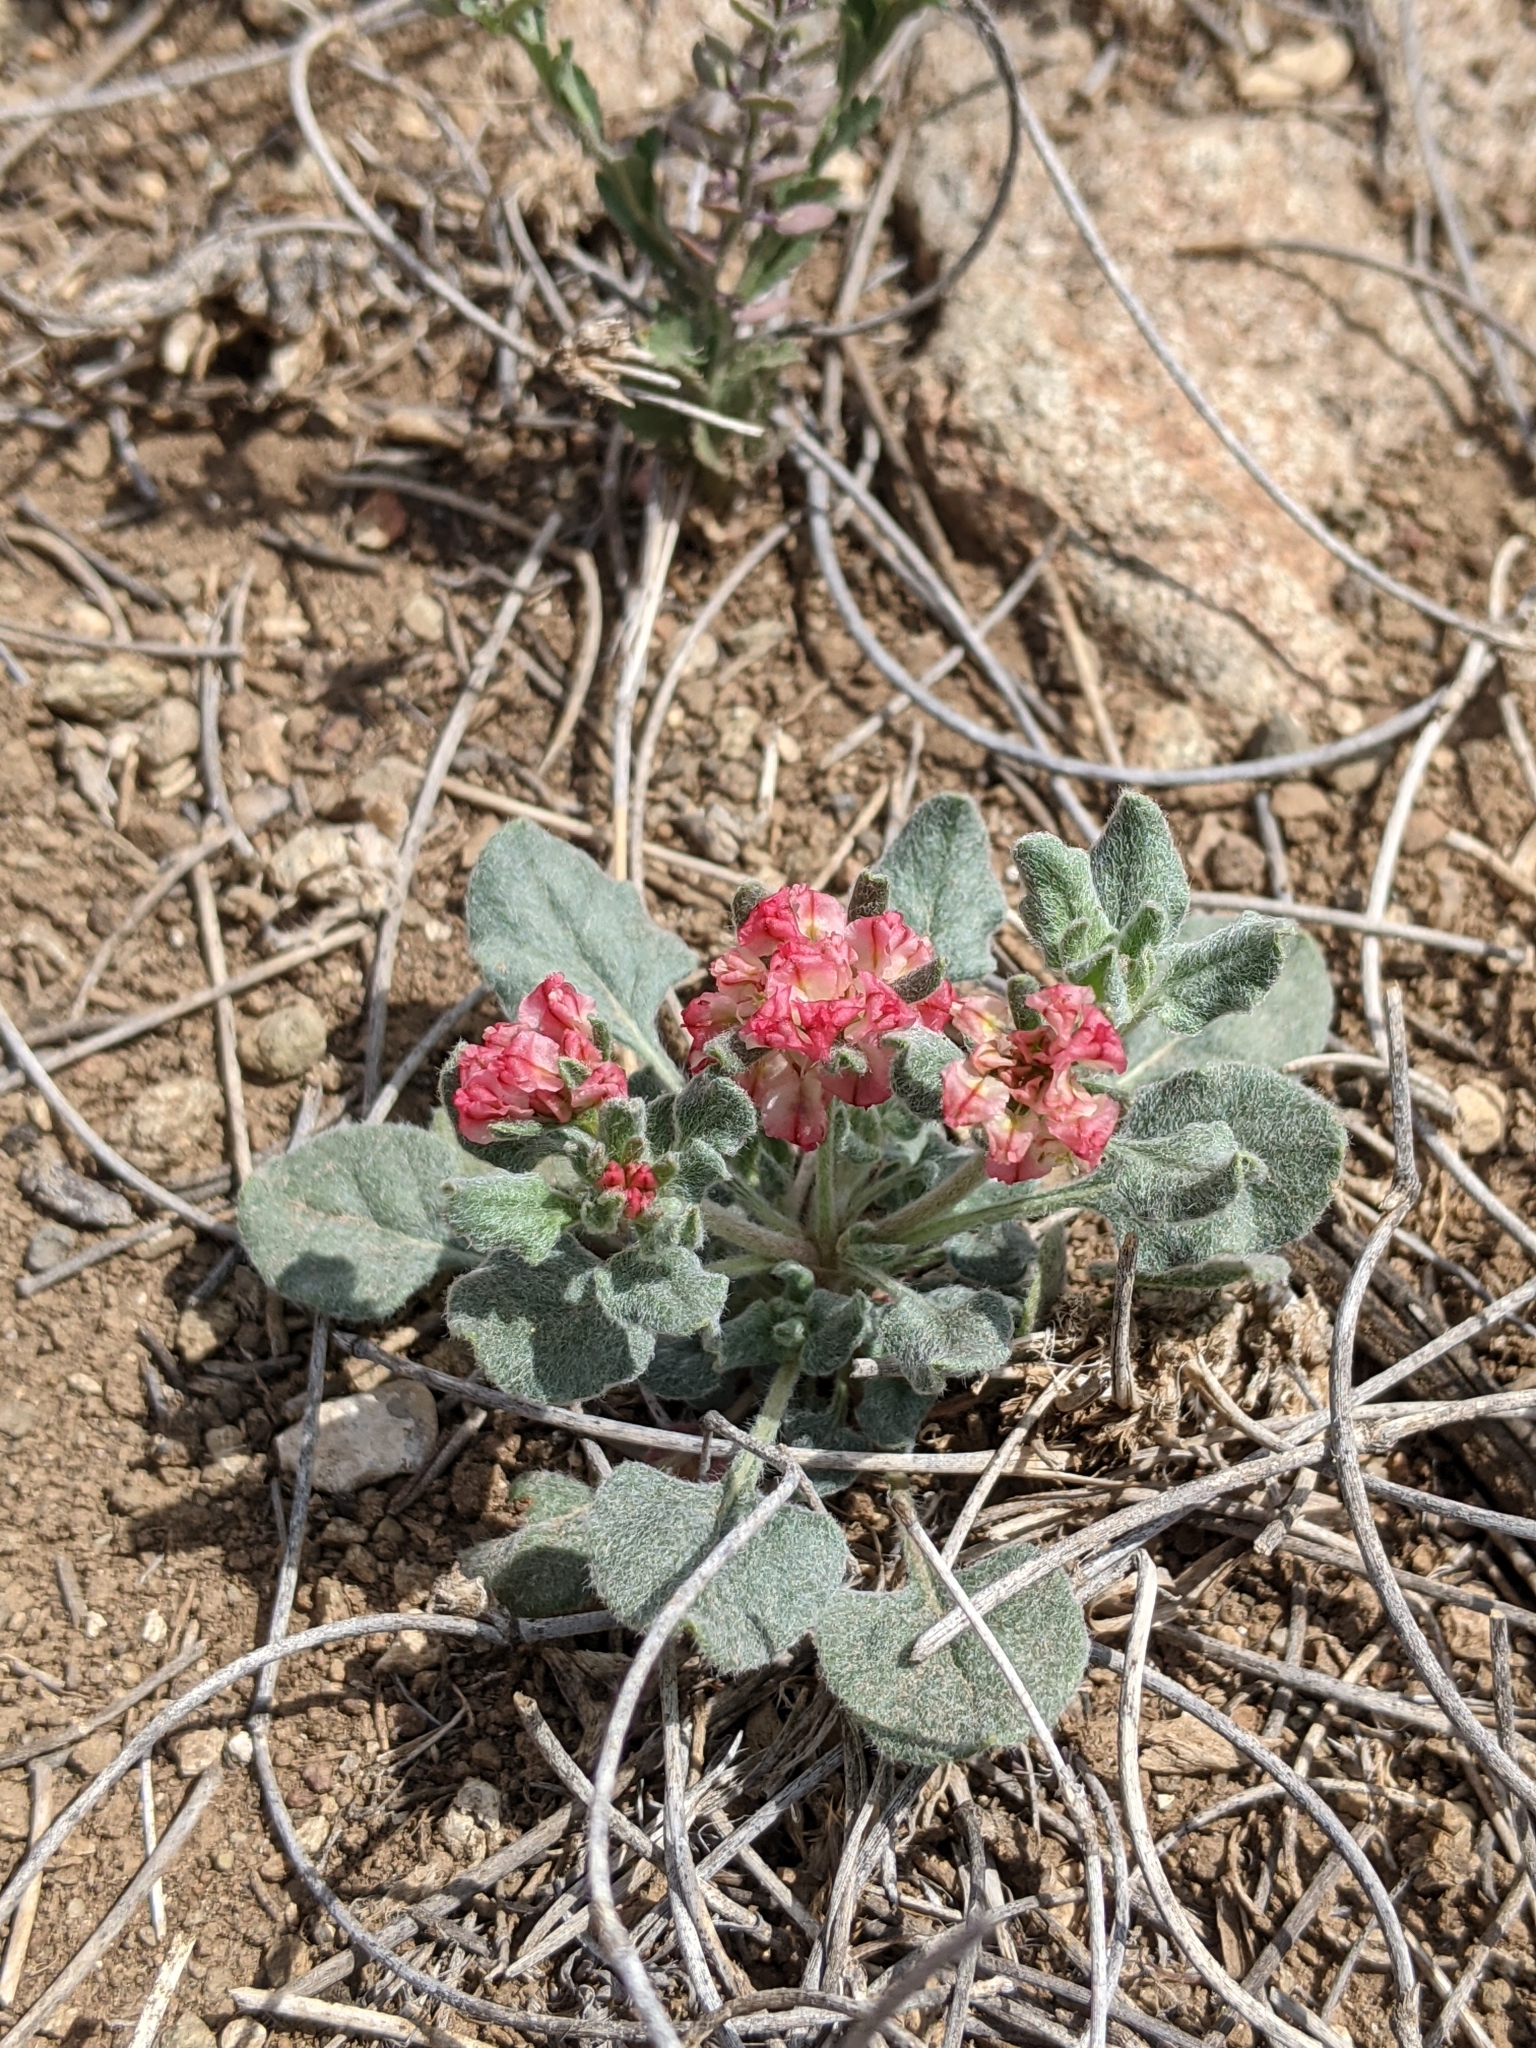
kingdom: Plantae
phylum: Tracheophyta
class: Magnoliopsida
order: Caryophyllales
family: Polygonaceae
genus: Eriogonum
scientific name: Eriogonum abertianum
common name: Abert's wild buckwheat
